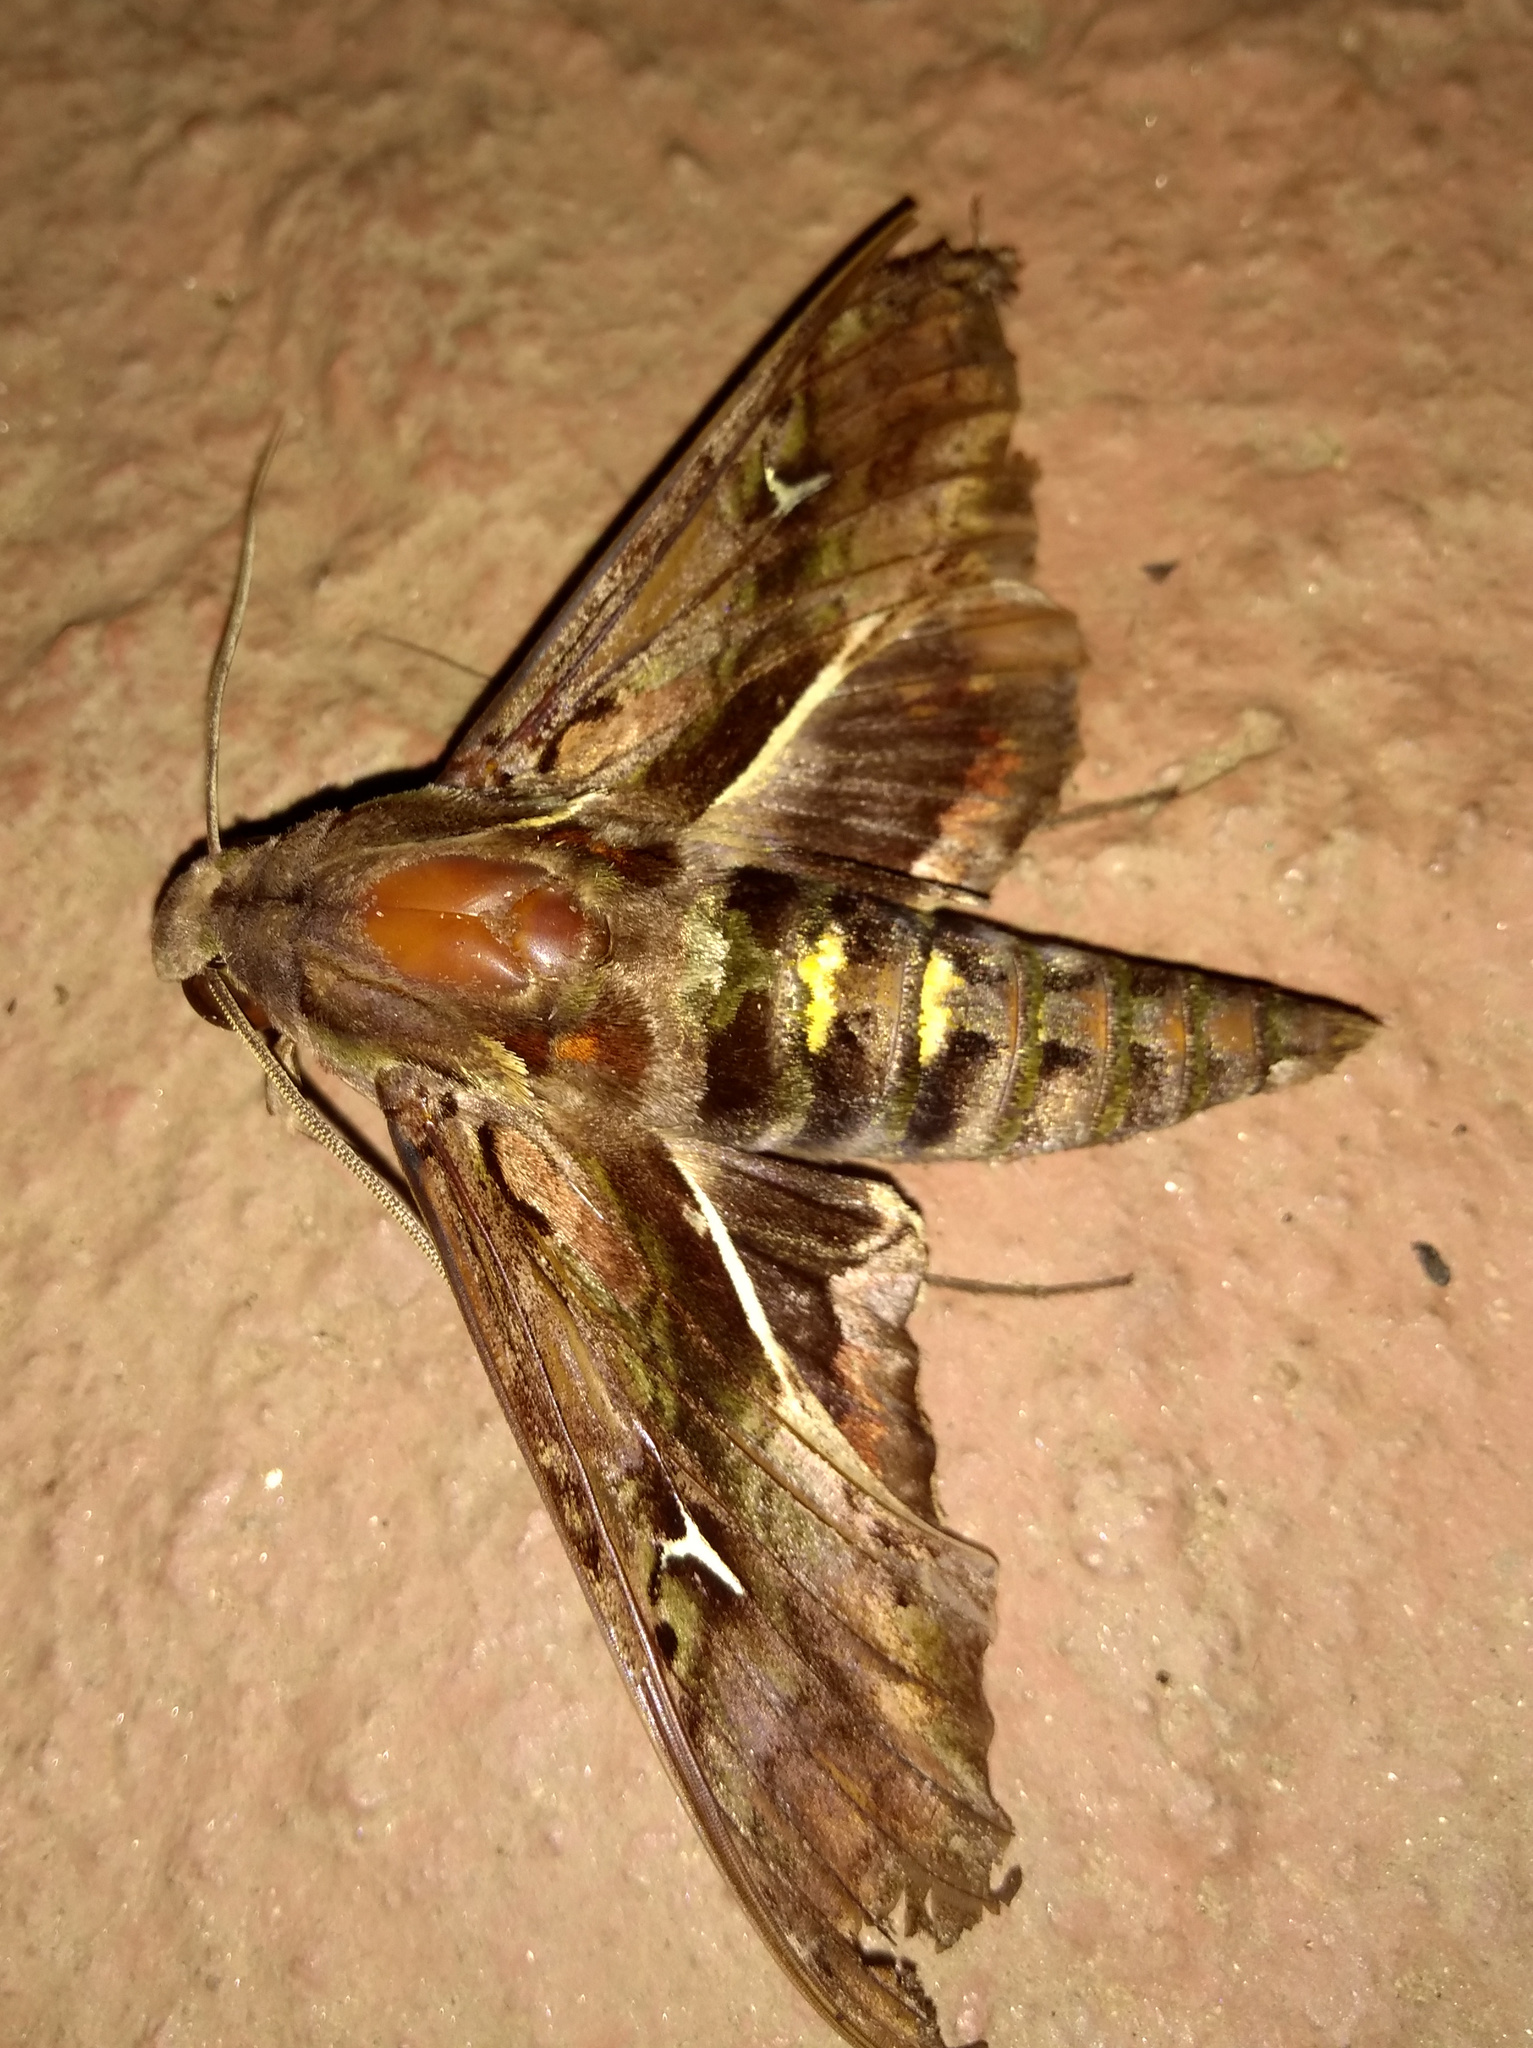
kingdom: Animalia
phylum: Arthropoda
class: Insecta
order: Lepidoptera
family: Sphingidae
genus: Hemeroplanes
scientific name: Hemeroplanes ornatus
